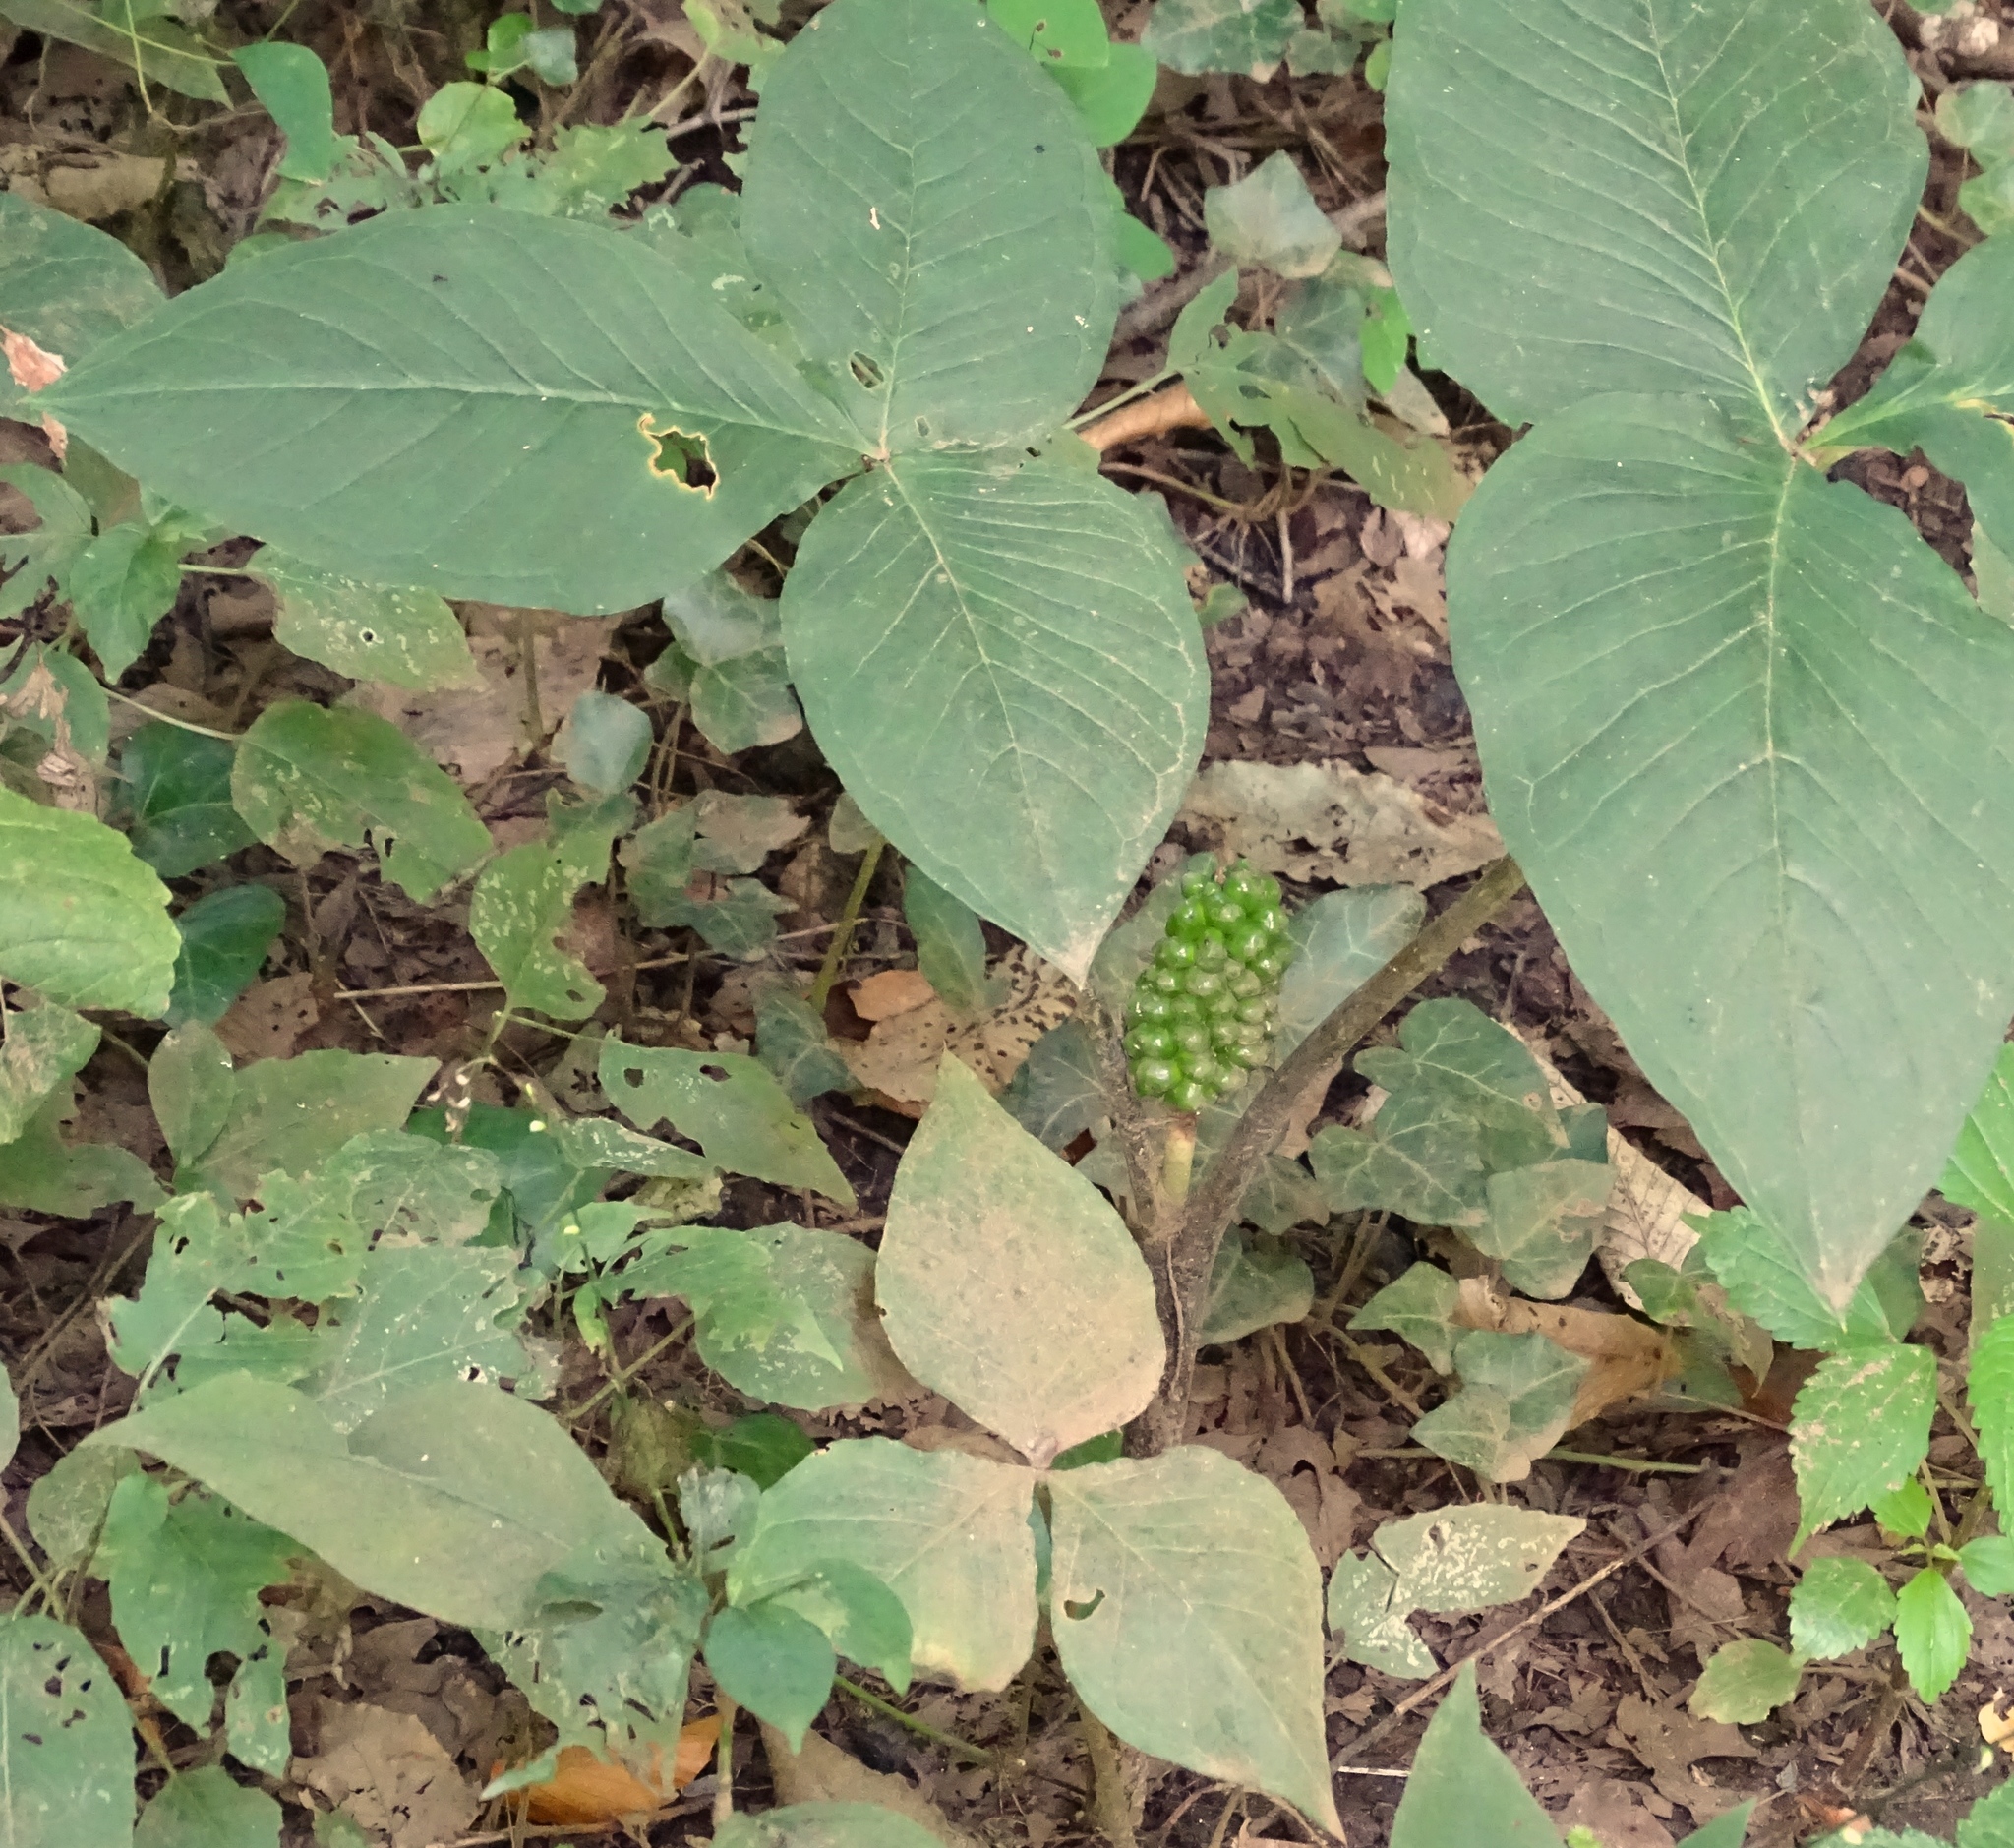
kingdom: Plantae
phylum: Tracheophyta
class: Liliopsida
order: Alismatales
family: Araceae
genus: Arisaema
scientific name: Arisaema triphyllum
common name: Jack-in-the-pulpit
